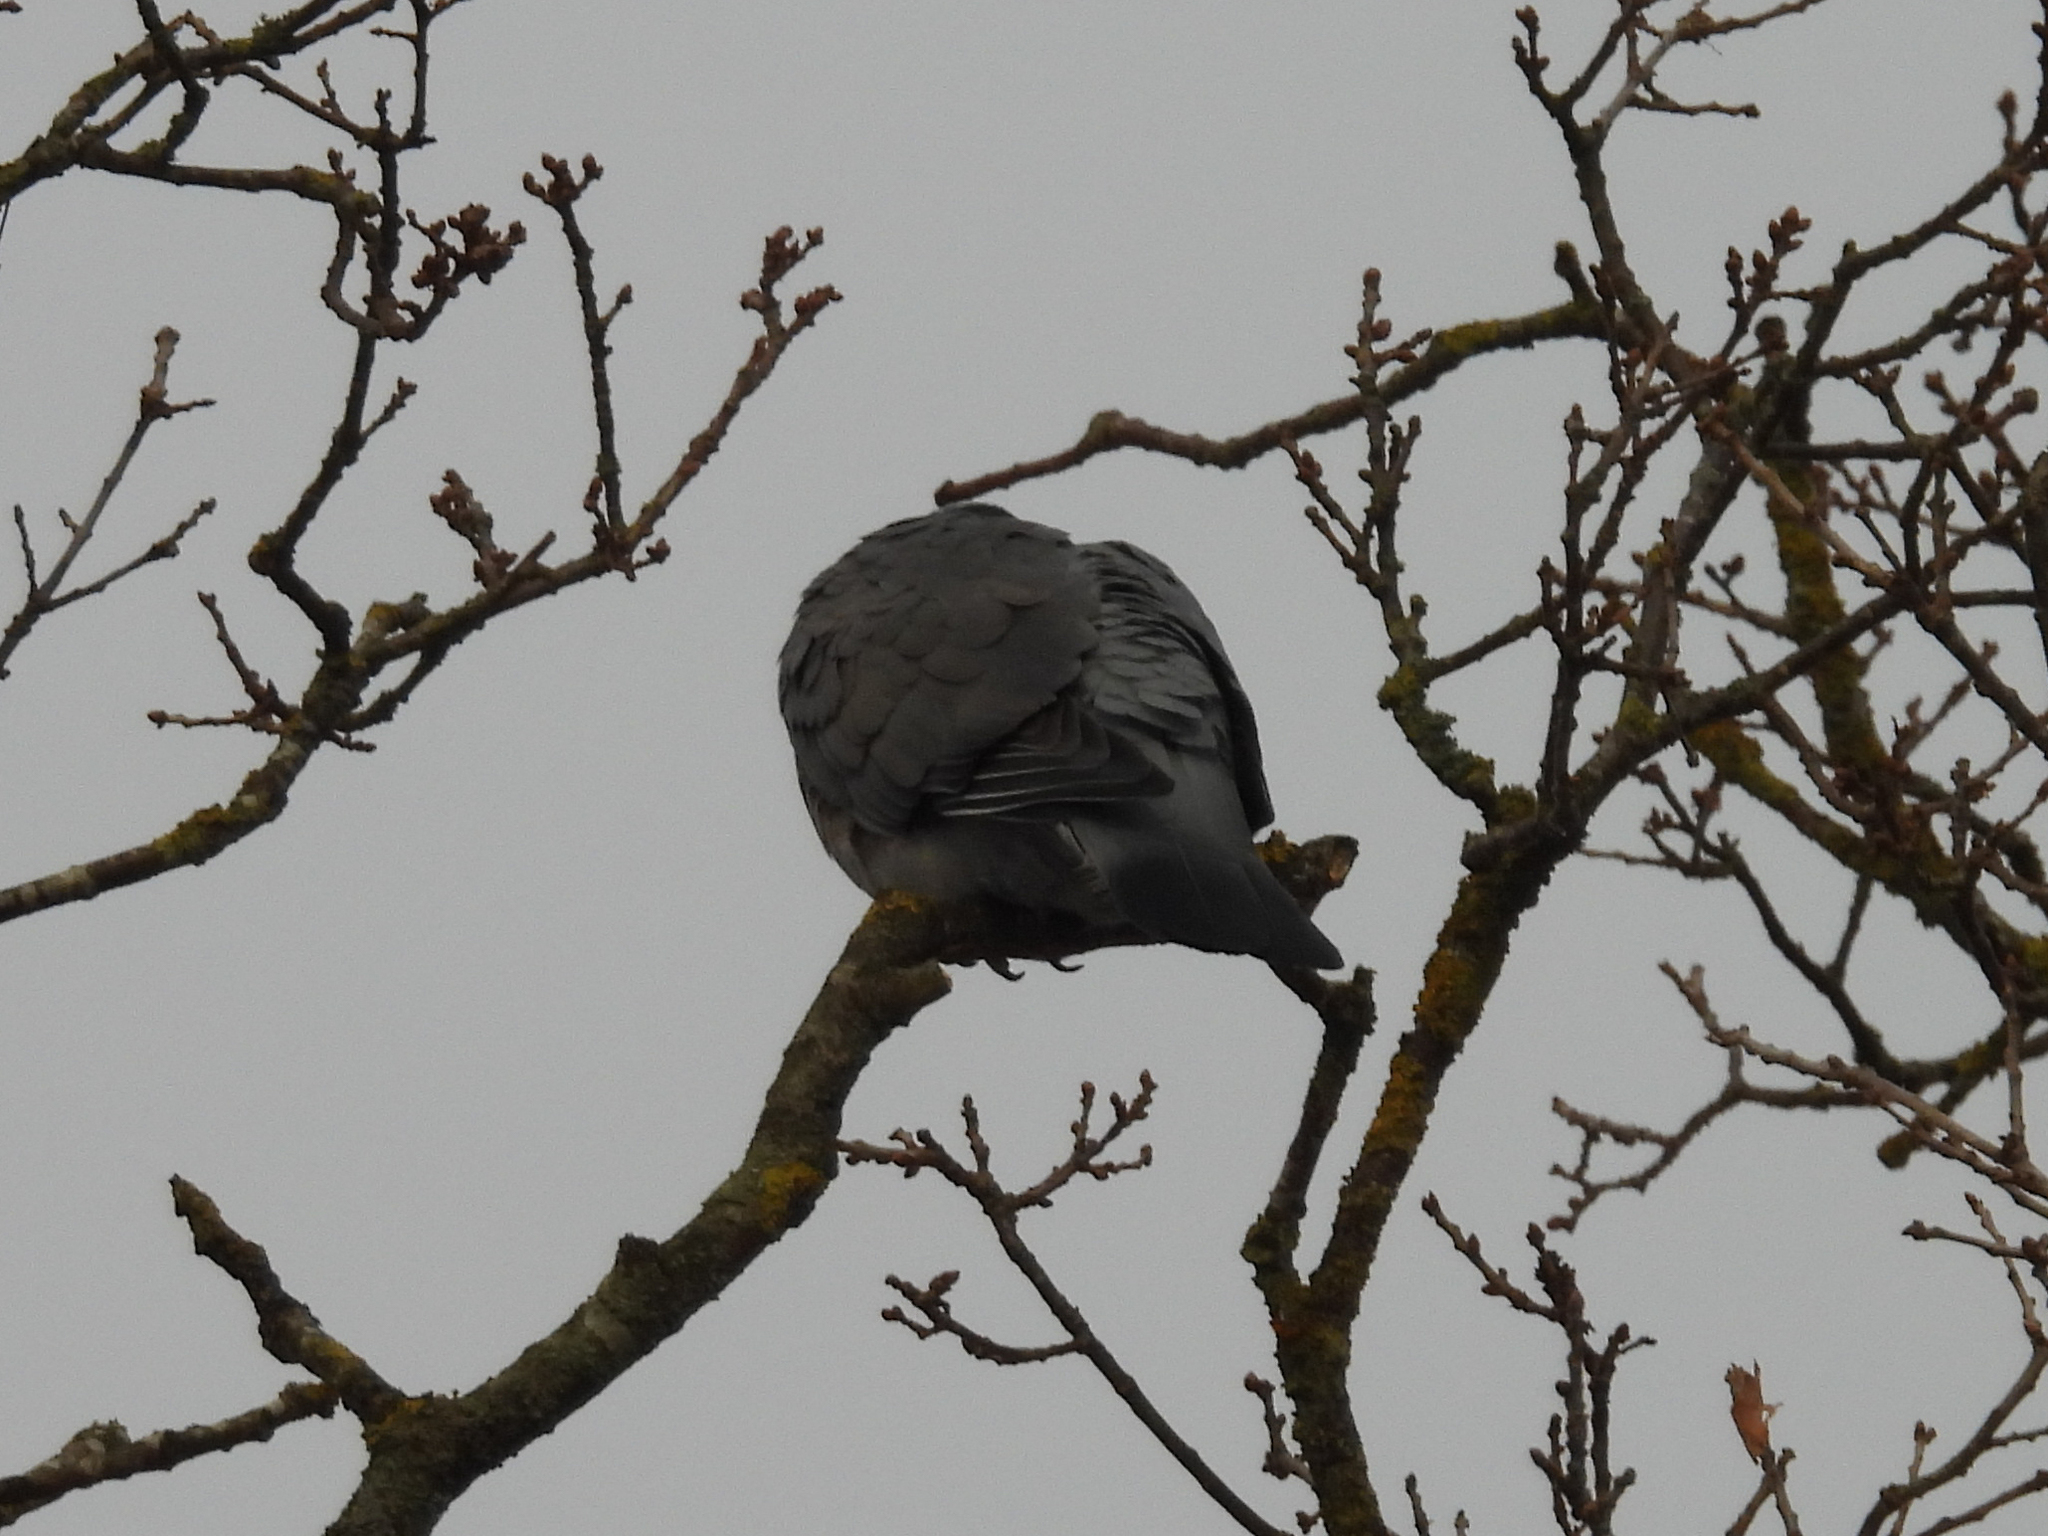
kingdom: Animalia
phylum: Chordata
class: Aves
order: Columbiformes
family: Columbidae
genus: Columba
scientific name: Columba palumbus
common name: Common wood pigeon
